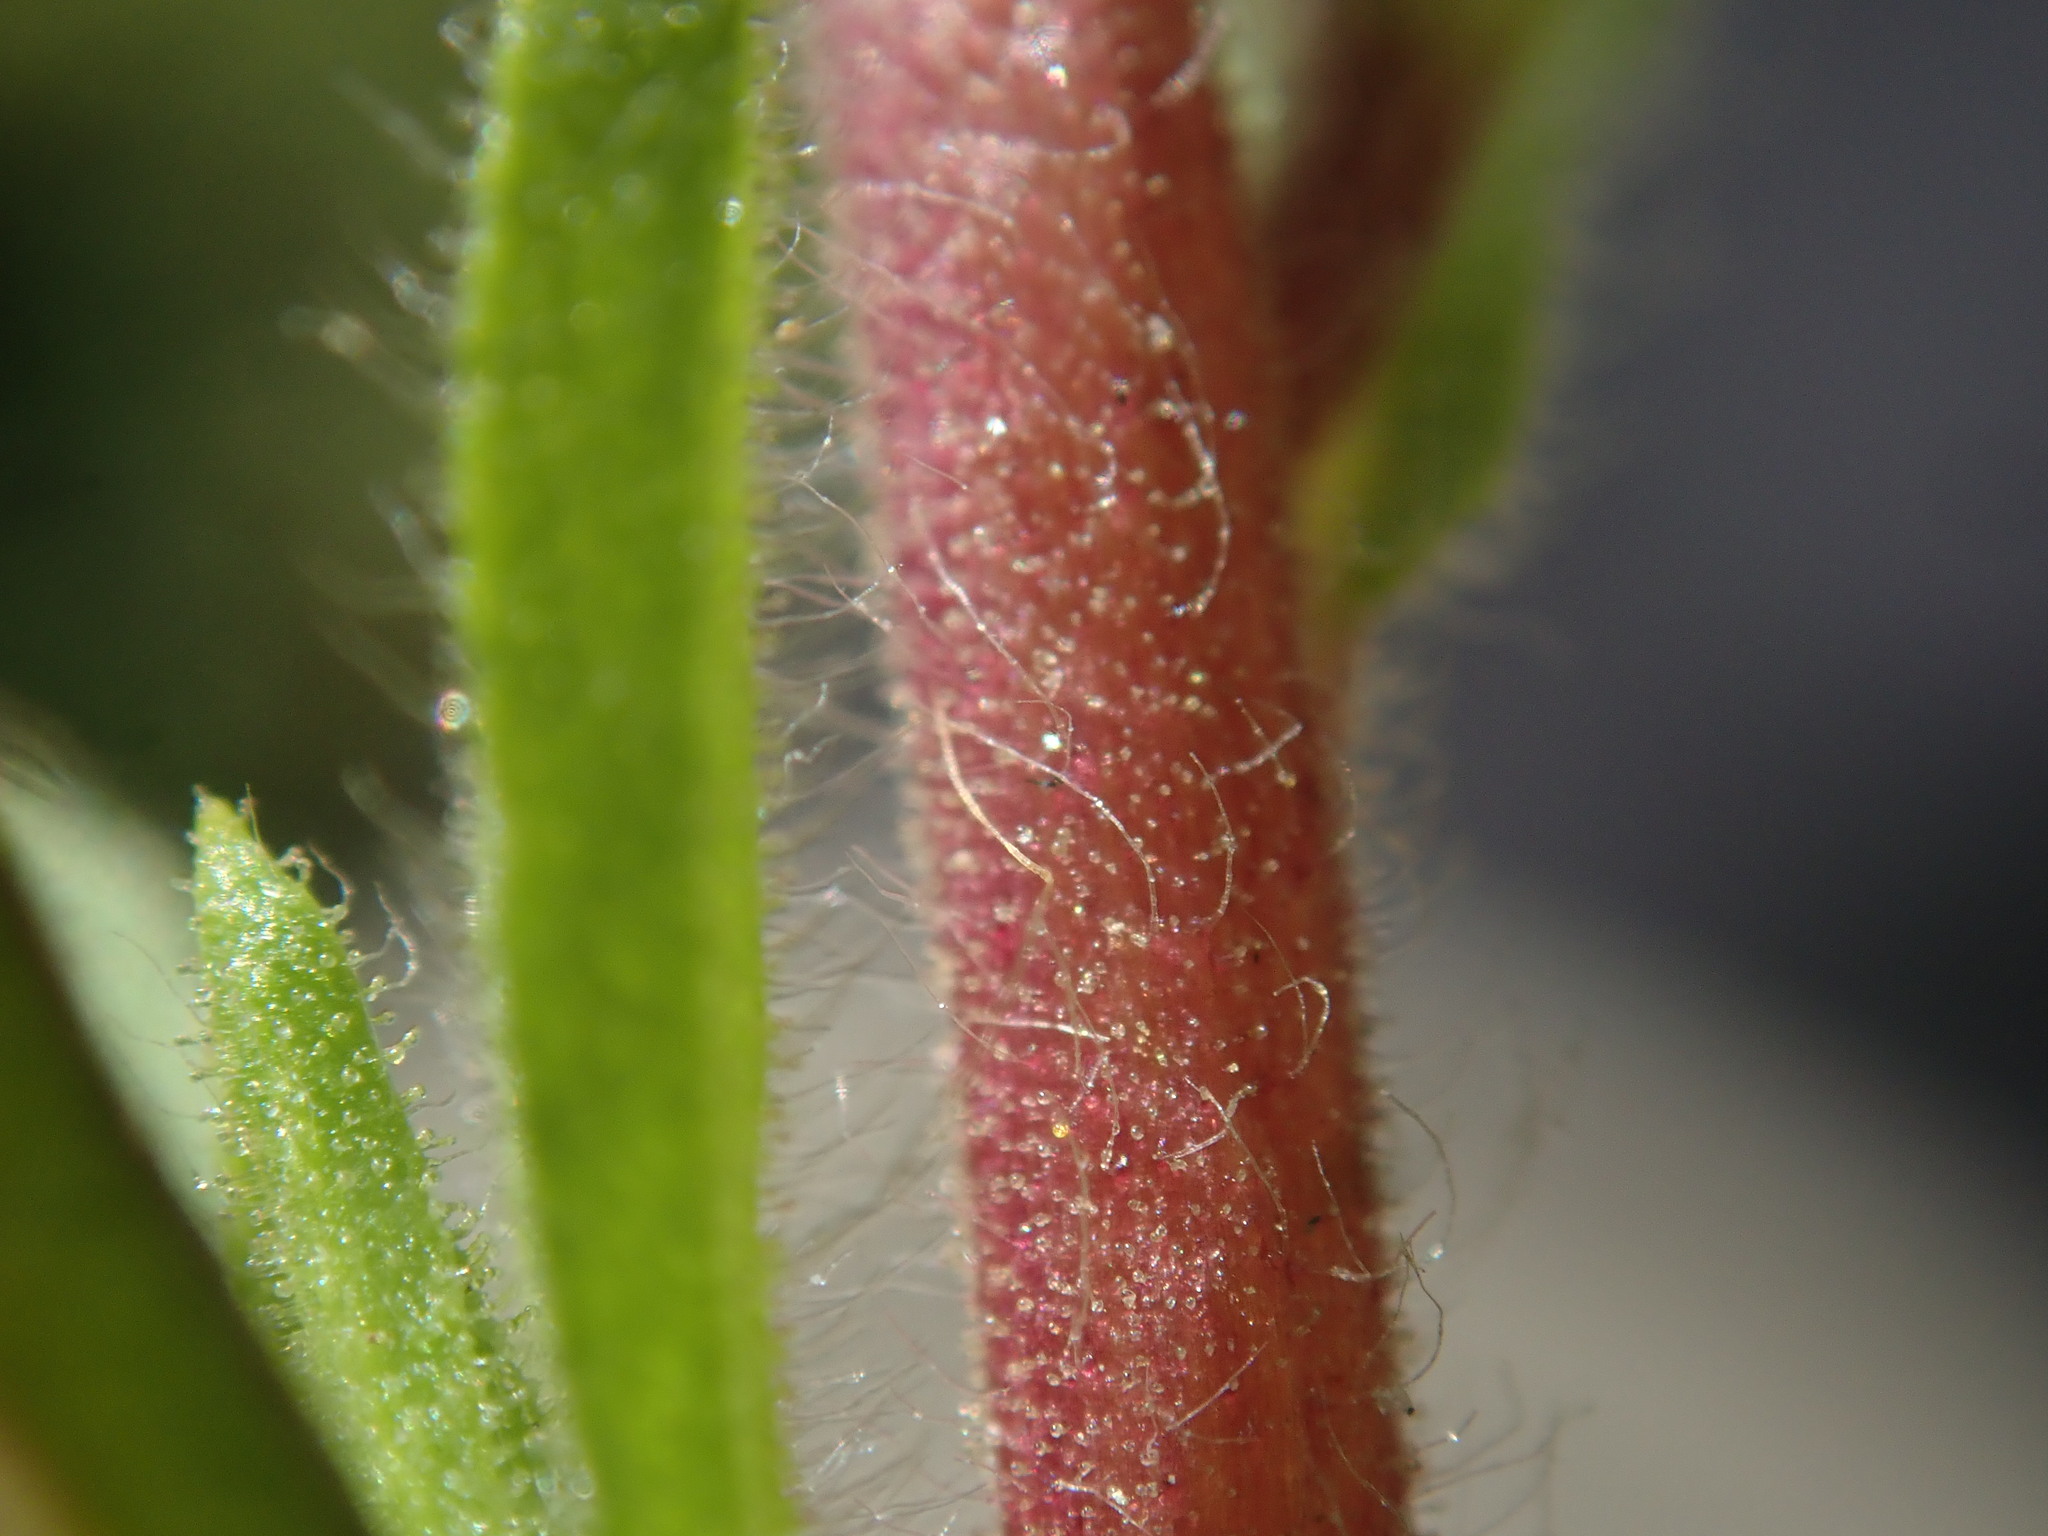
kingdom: Plantae
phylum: Tracheophyta
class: Magnoliopsida
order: Asterales
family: Asteraceae
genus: Dittrichia
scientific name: Dittrichia graveolens
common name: Stinking fleabane
